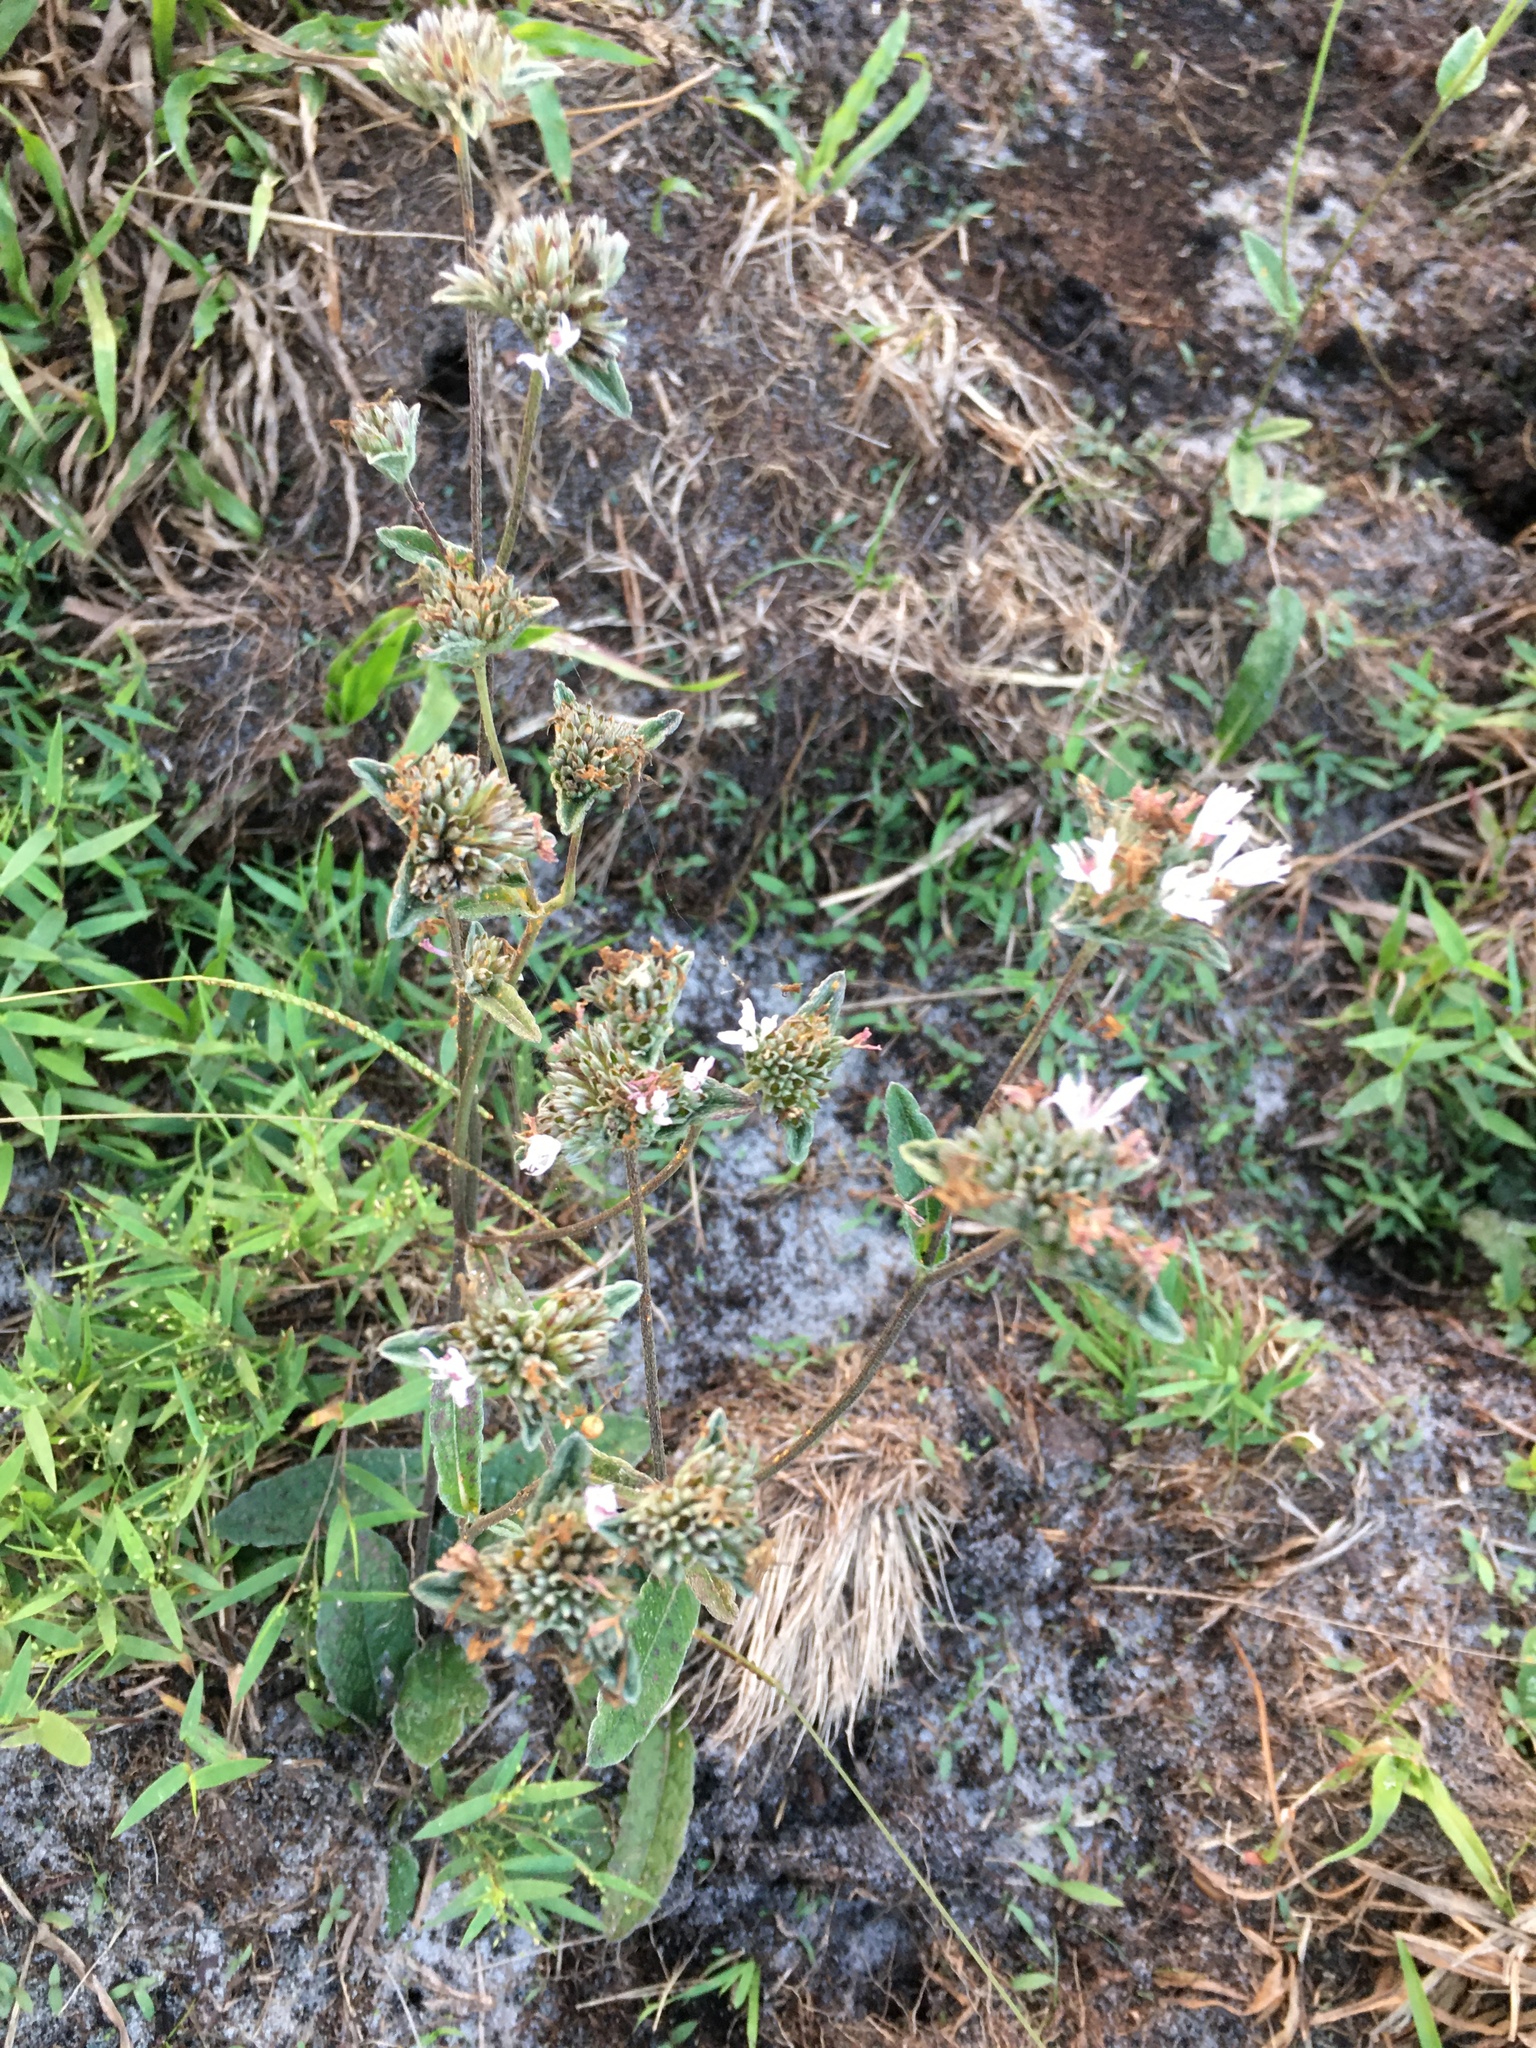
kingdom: Plantae
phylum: Tracheophyta
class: Magnoliopsida
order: Asterales
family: Asteraceae
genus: Elephantopus
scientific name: Elephantopus elatus
